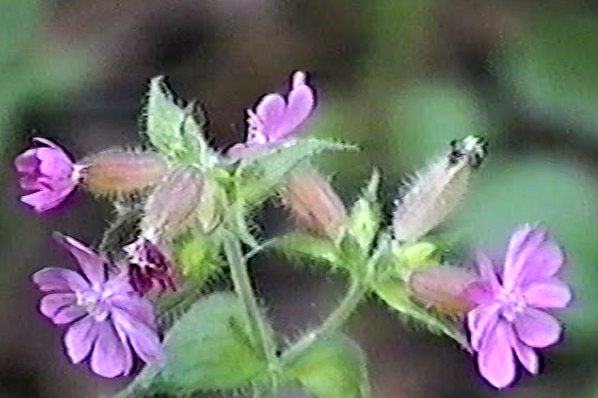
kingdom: Plantae
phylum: Tracheophyta
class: Magnoliopsida
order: Caryophyllales
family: Caryophyllaceae
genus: Silene
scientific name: Silene dioica
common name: Red campion
